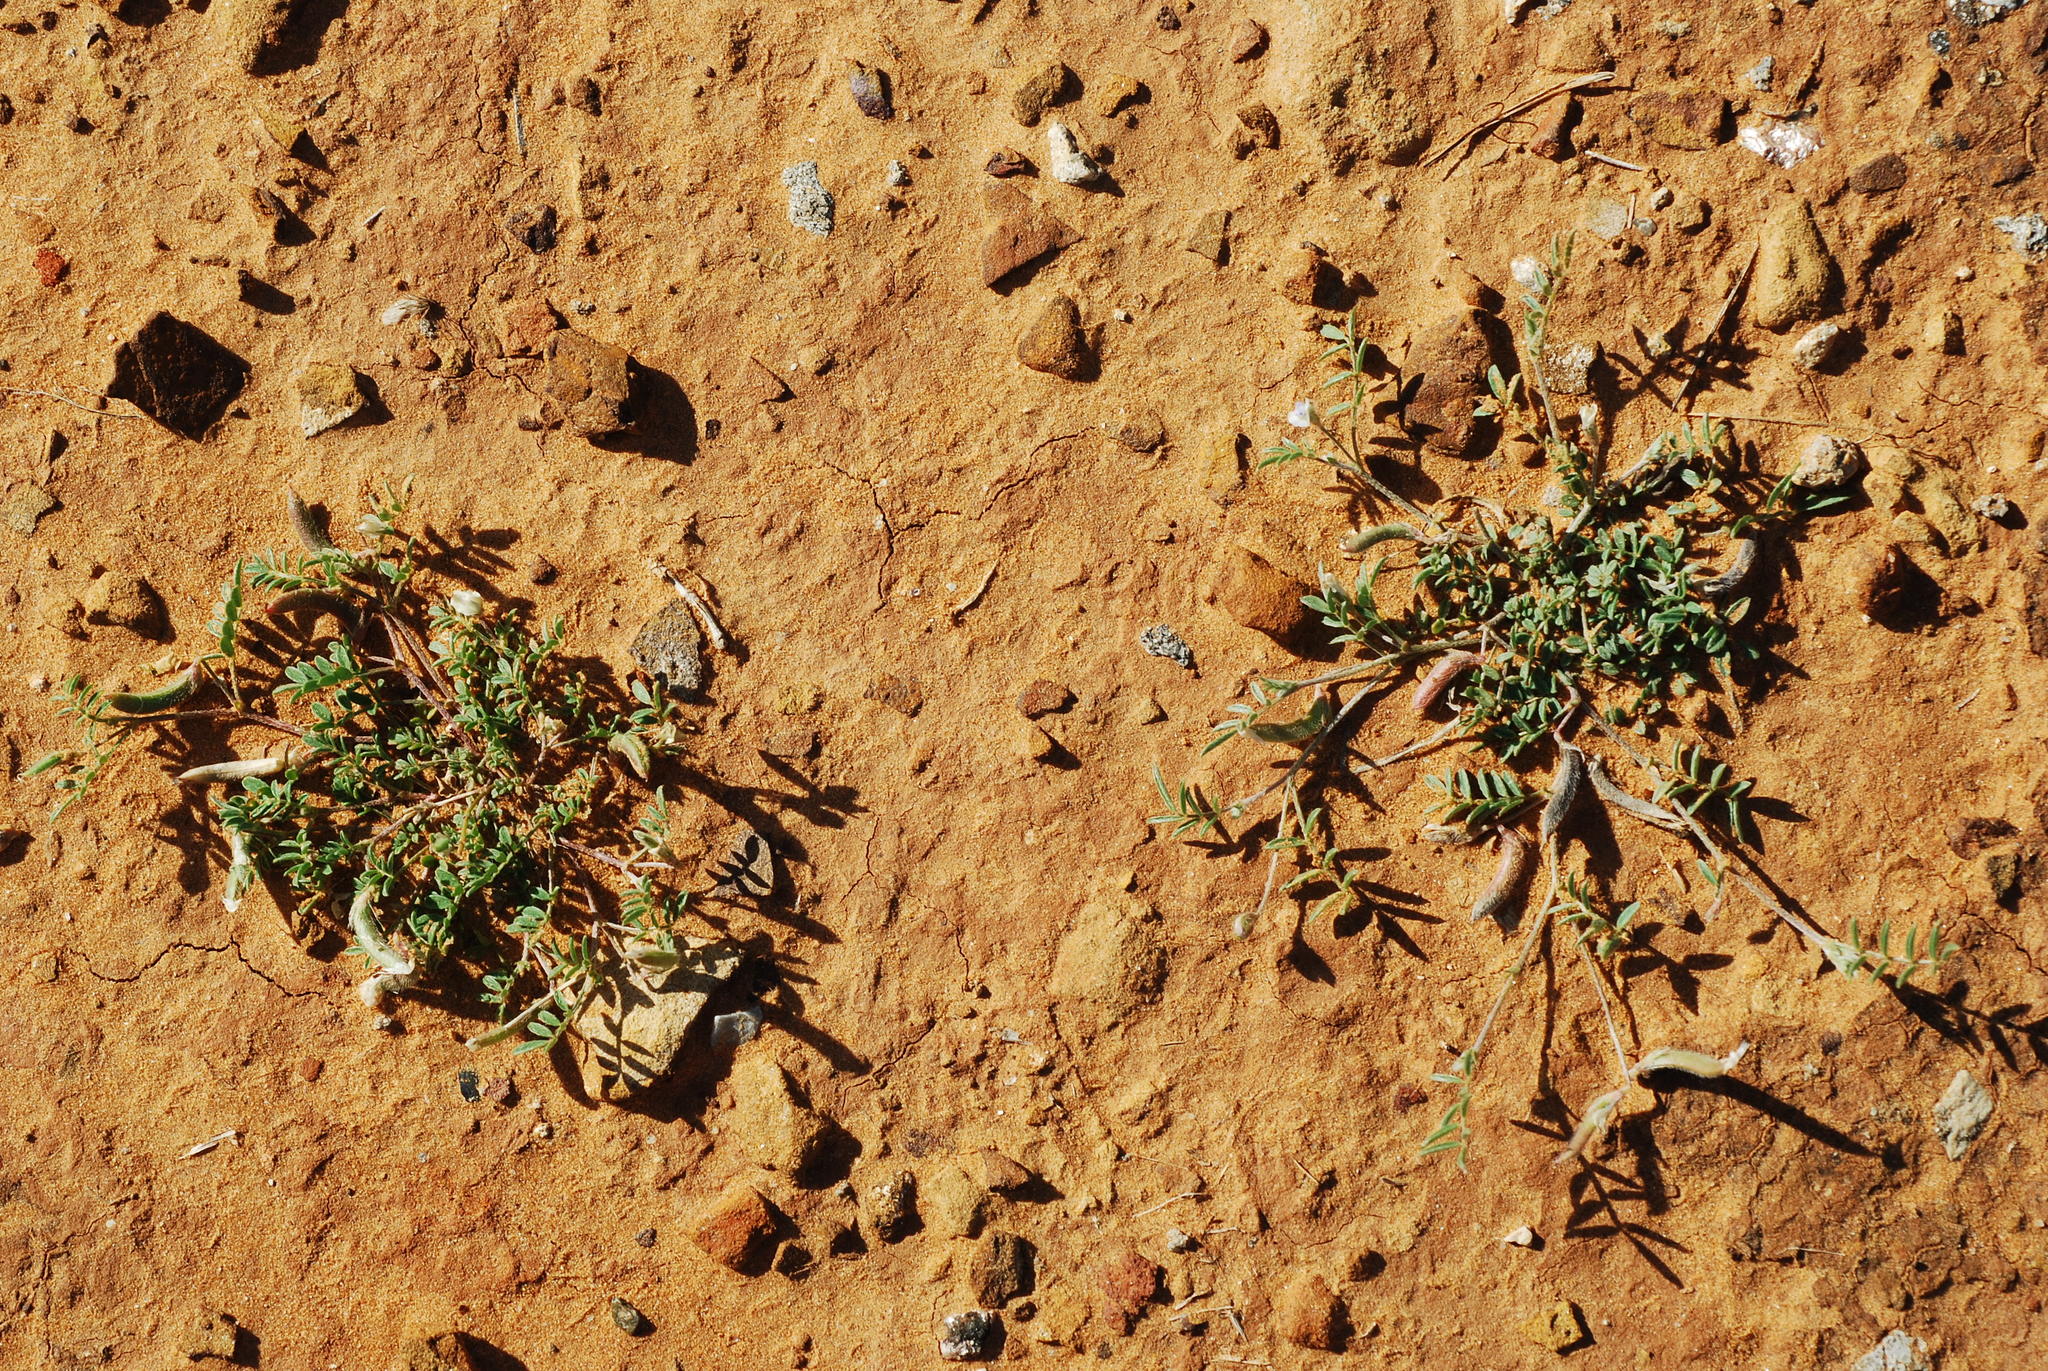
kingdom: Plantae
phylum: Tracheophyta
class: Magnoliopsida
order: Fabales
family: Fabaceae
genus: Astragalus
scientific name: Astragalus nuttallianus
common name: Smallflowered milkvetch
